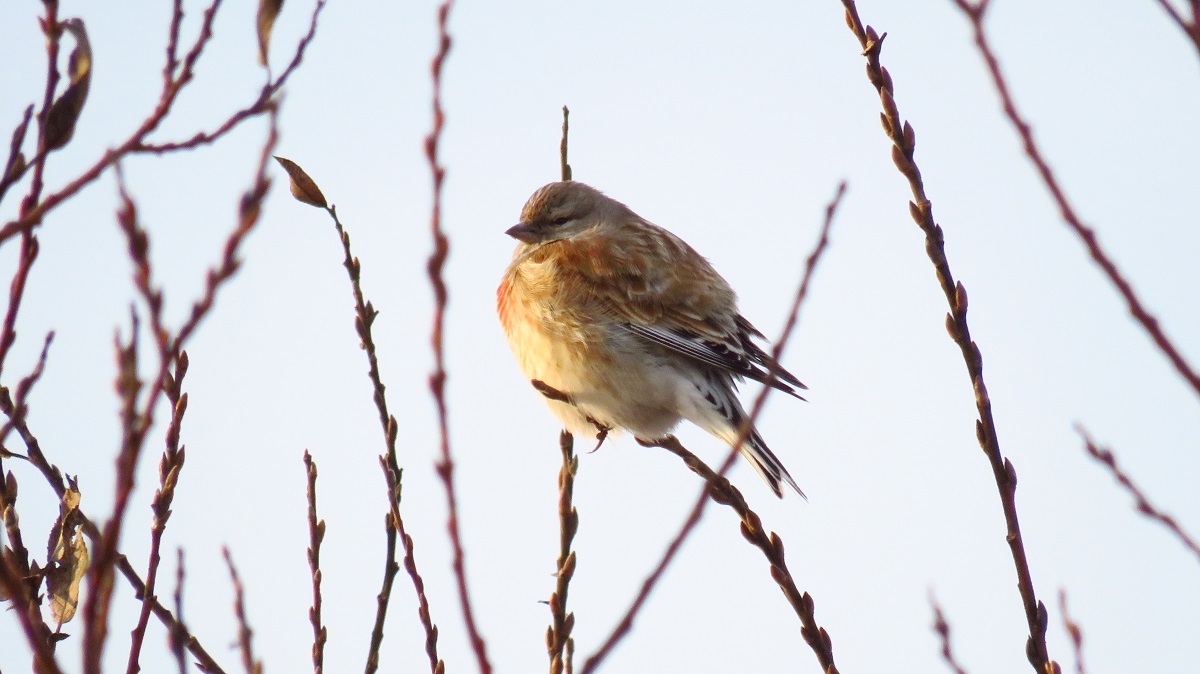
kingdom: Animalia
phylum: Chordata
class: Aves
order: Passeriformes
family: Fringillidae
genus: Linaria
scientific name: Linaria cannabina
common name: Common linnet
